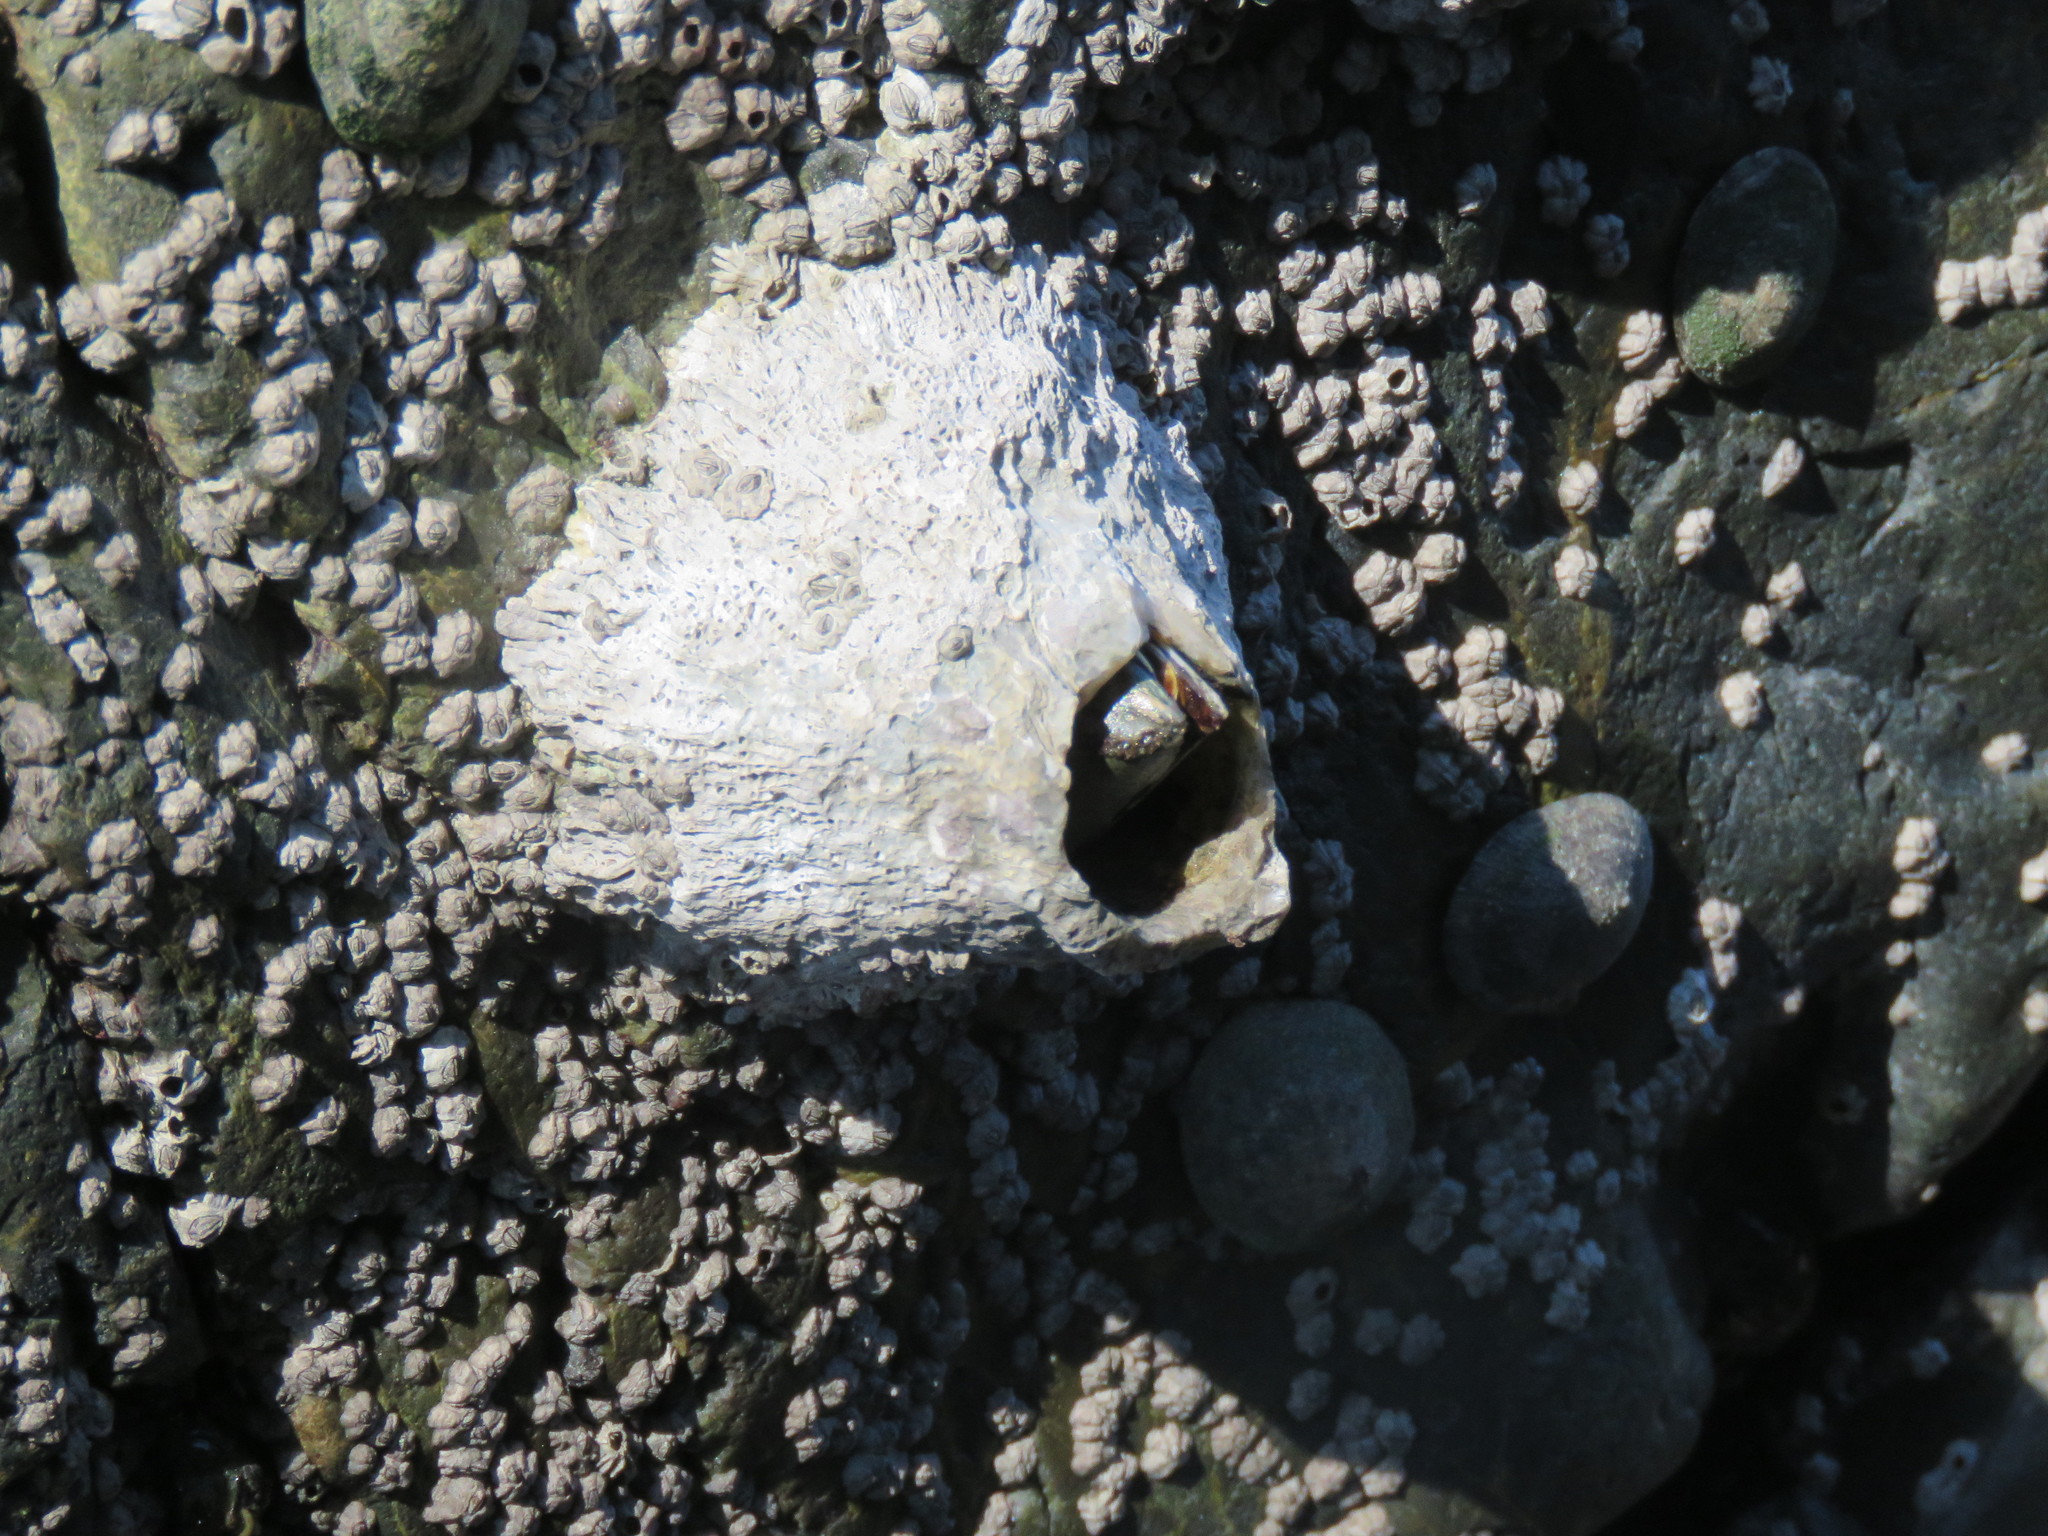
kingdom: Animalia
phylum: Arthropoda
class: Maxillopoda
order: Sessilia
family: Archaeobalanidae
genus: Semibalanus
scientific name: Semibalanus cariosus
